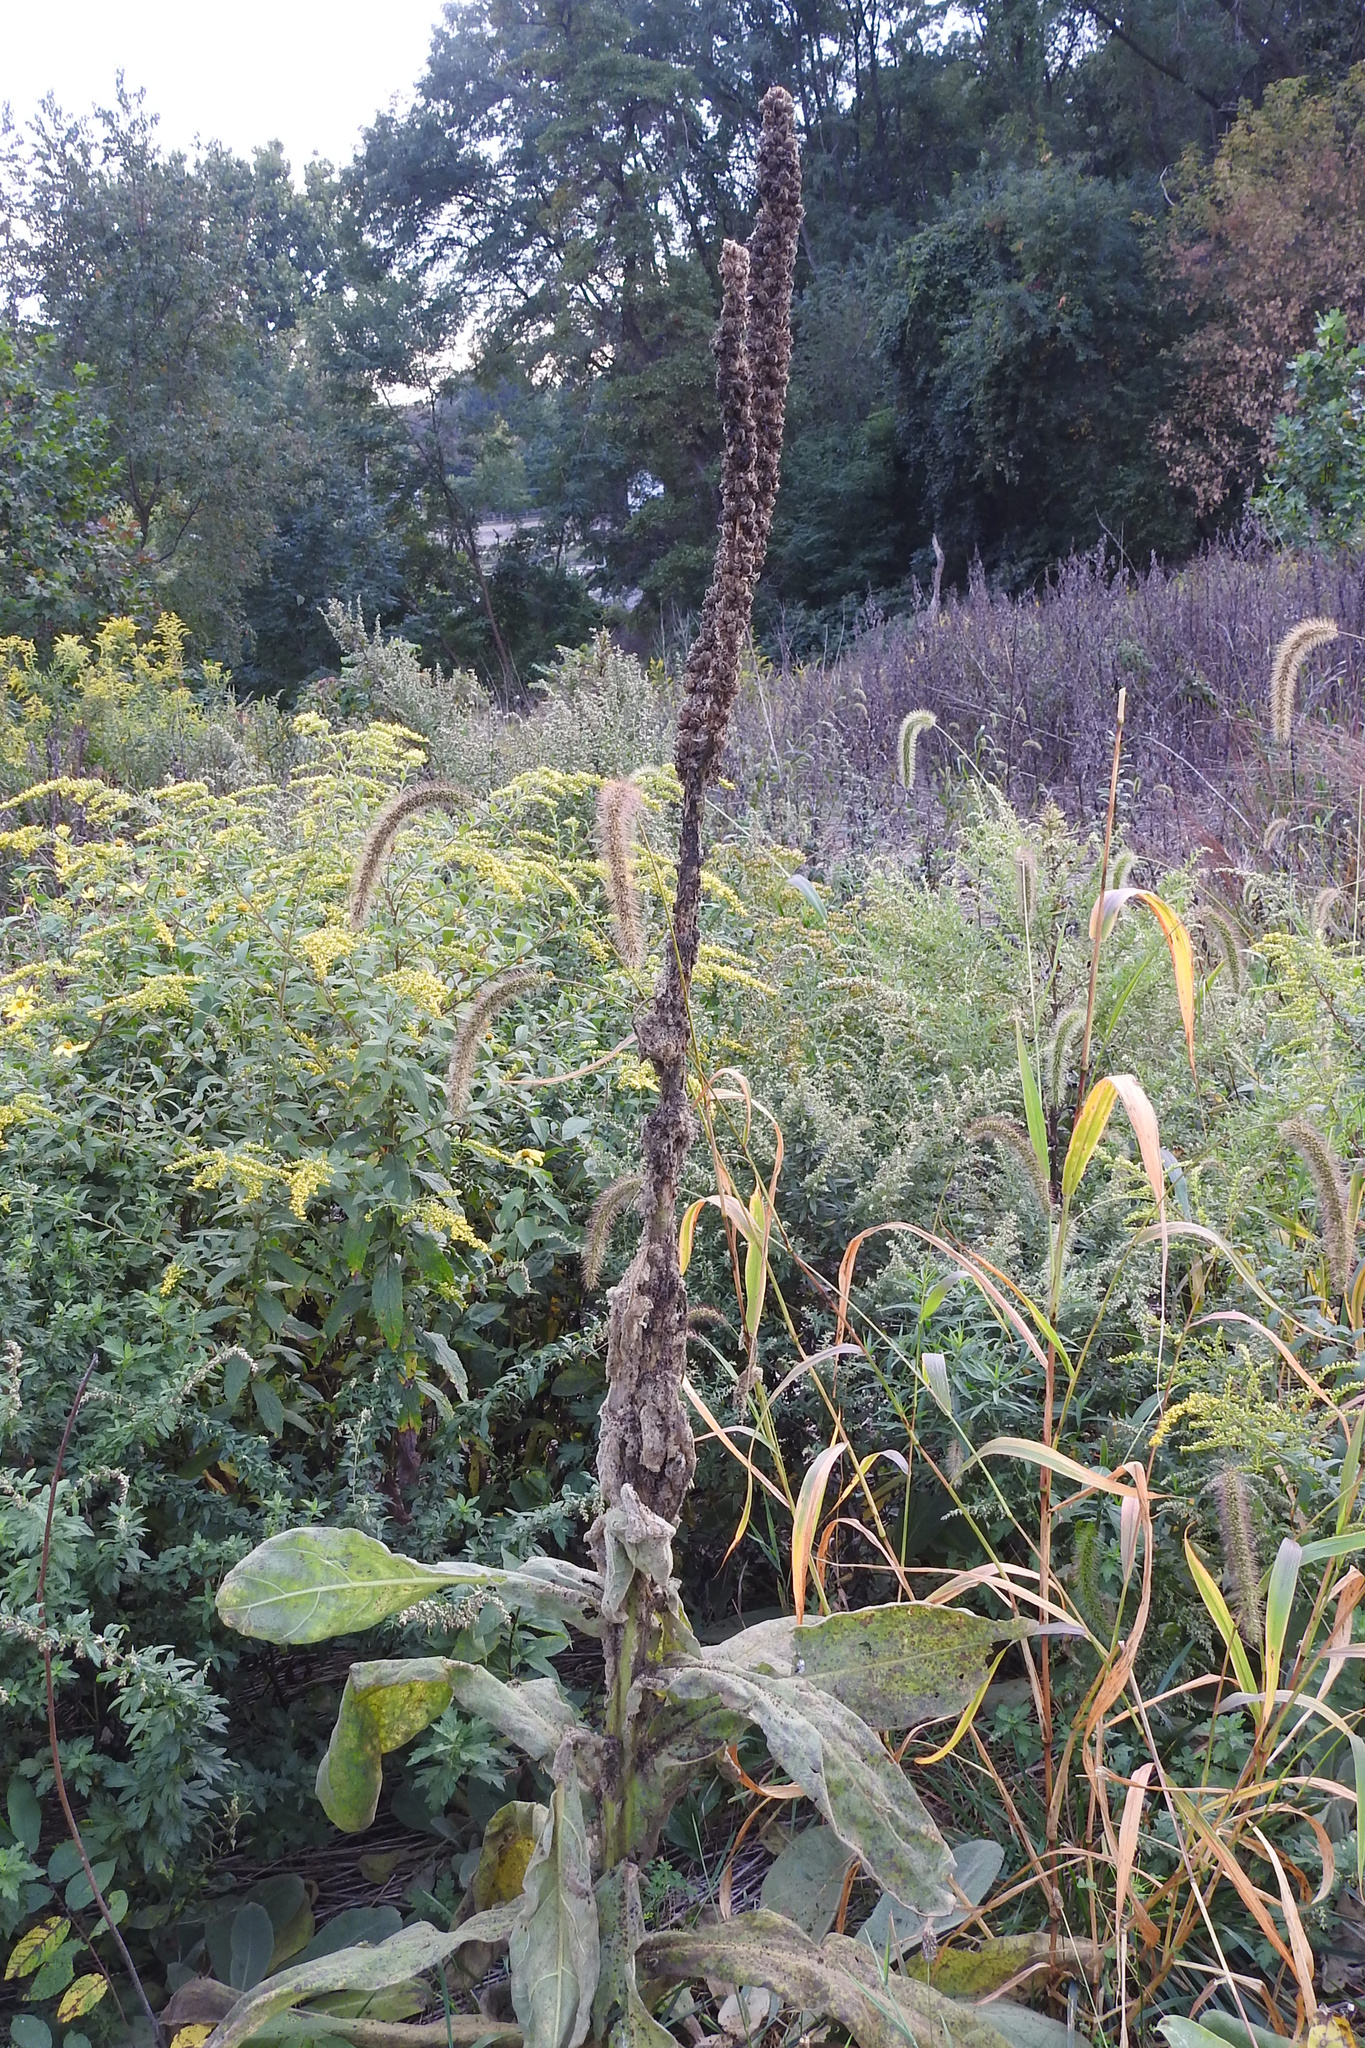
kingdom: Plantae
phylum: Tracheophyta
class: Magnoliopsida
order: Lamiales
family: Scrophulariaceae
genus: Verbascum
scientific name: Verbascum thapsus
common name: Common mullein
